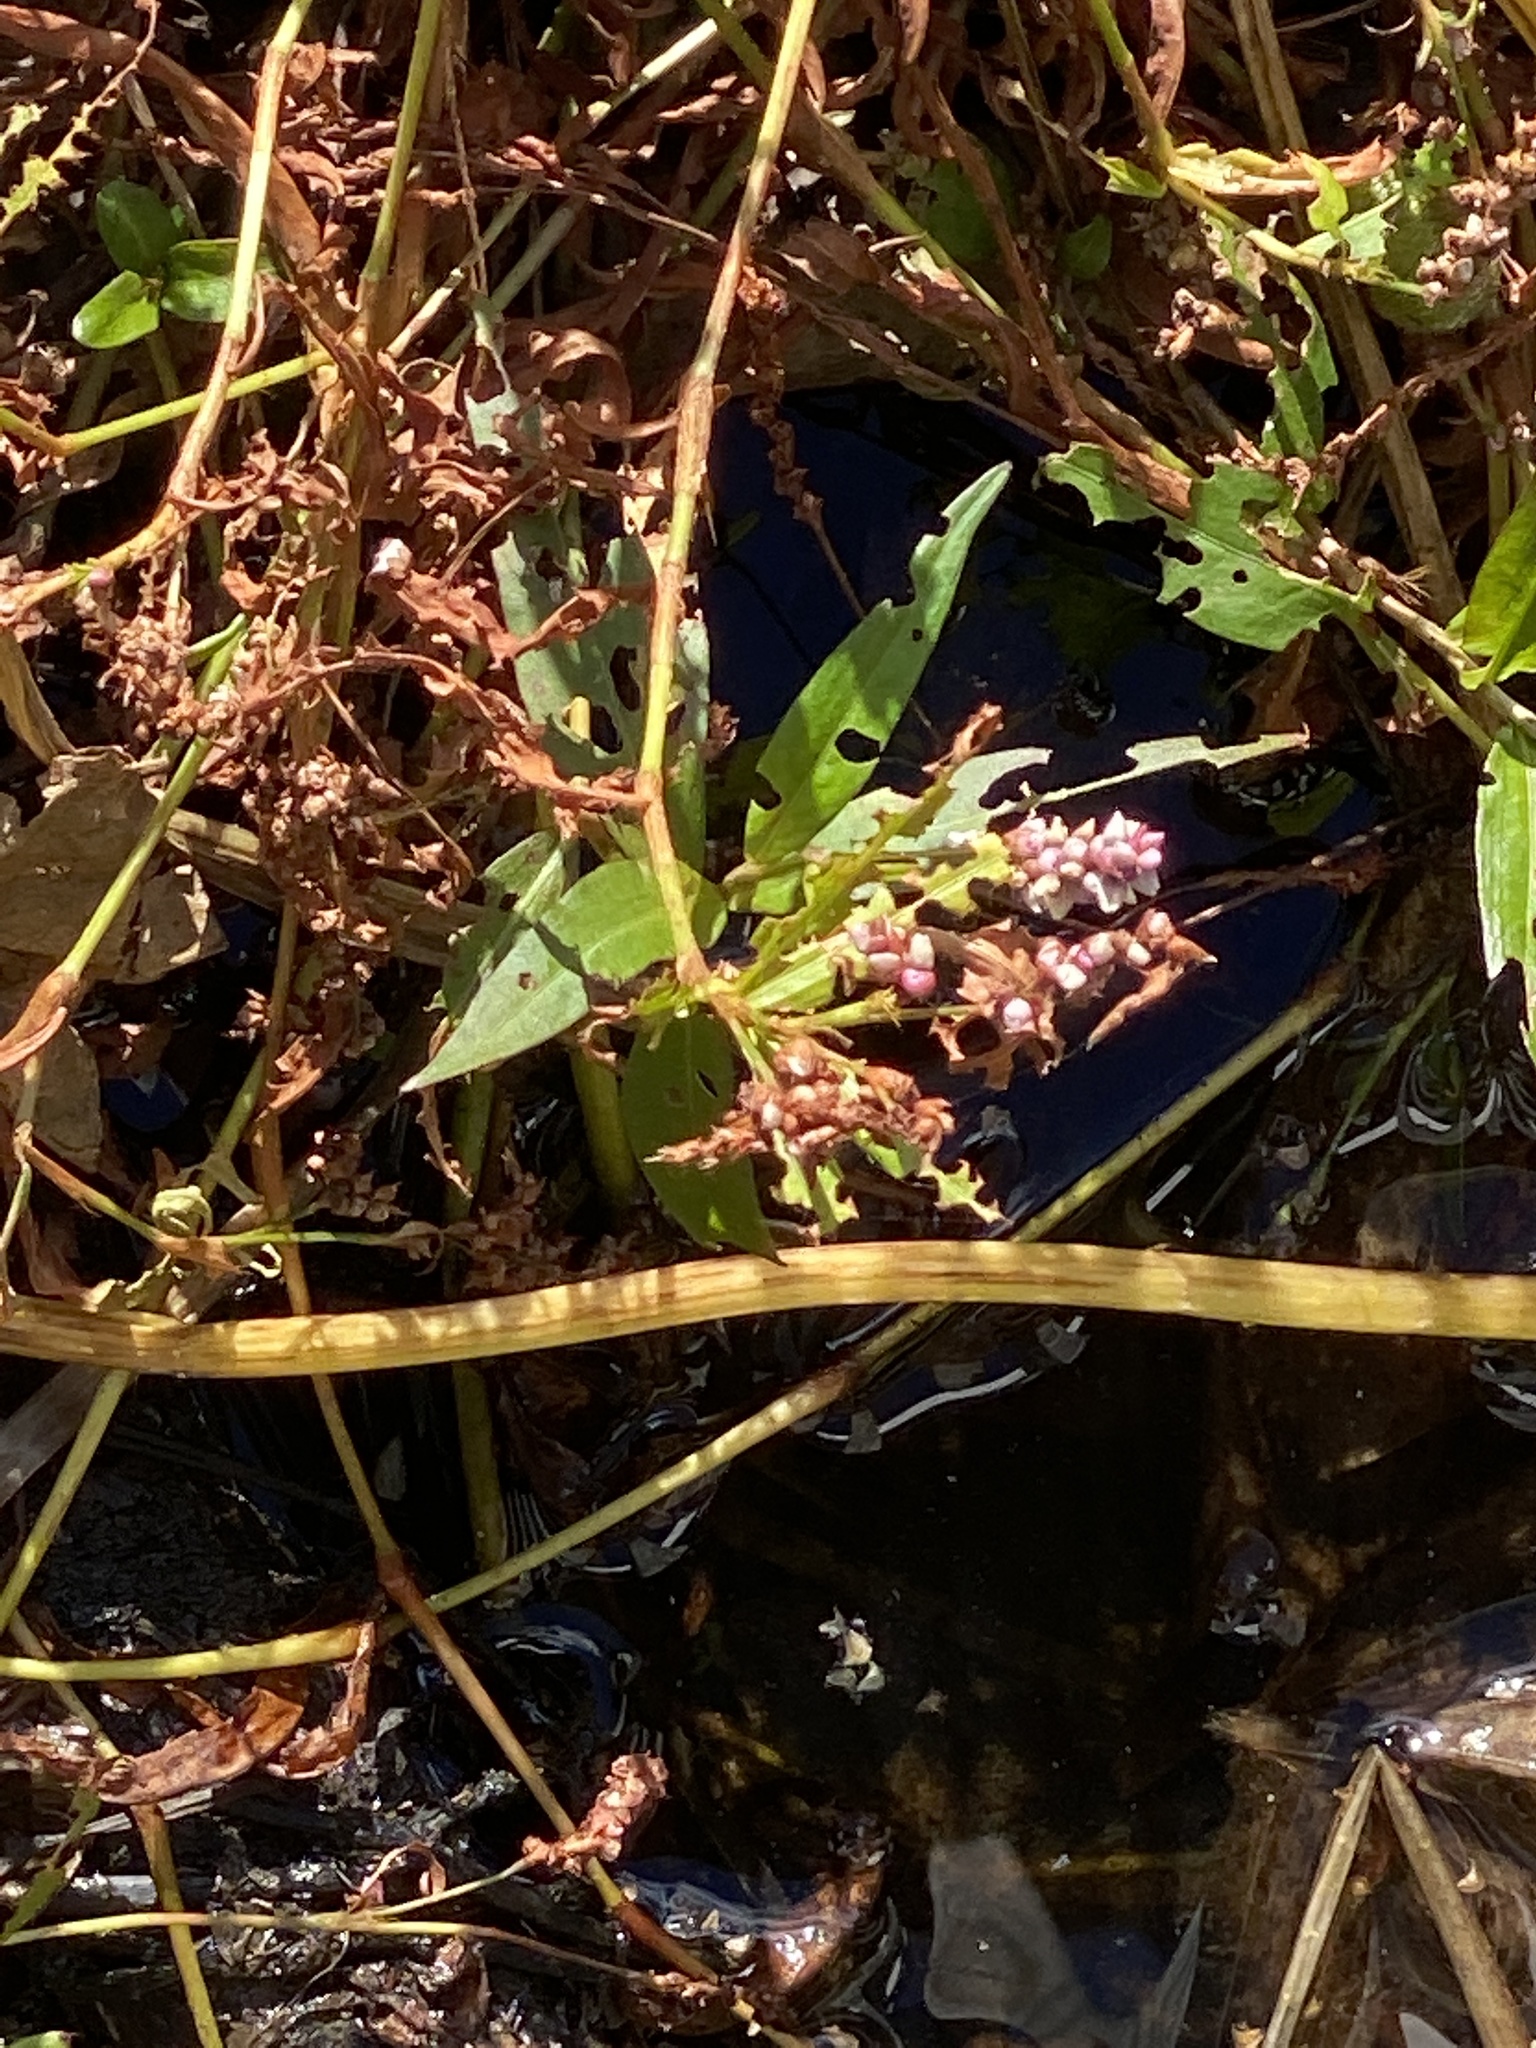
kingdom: Plantae
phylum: Tracheophyta
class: Magnoliopsida
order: Caryophyllales
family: Polygonaceae
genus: Persicaria
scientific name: Persicaria hydropiperoides
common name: Swamp smartweed
